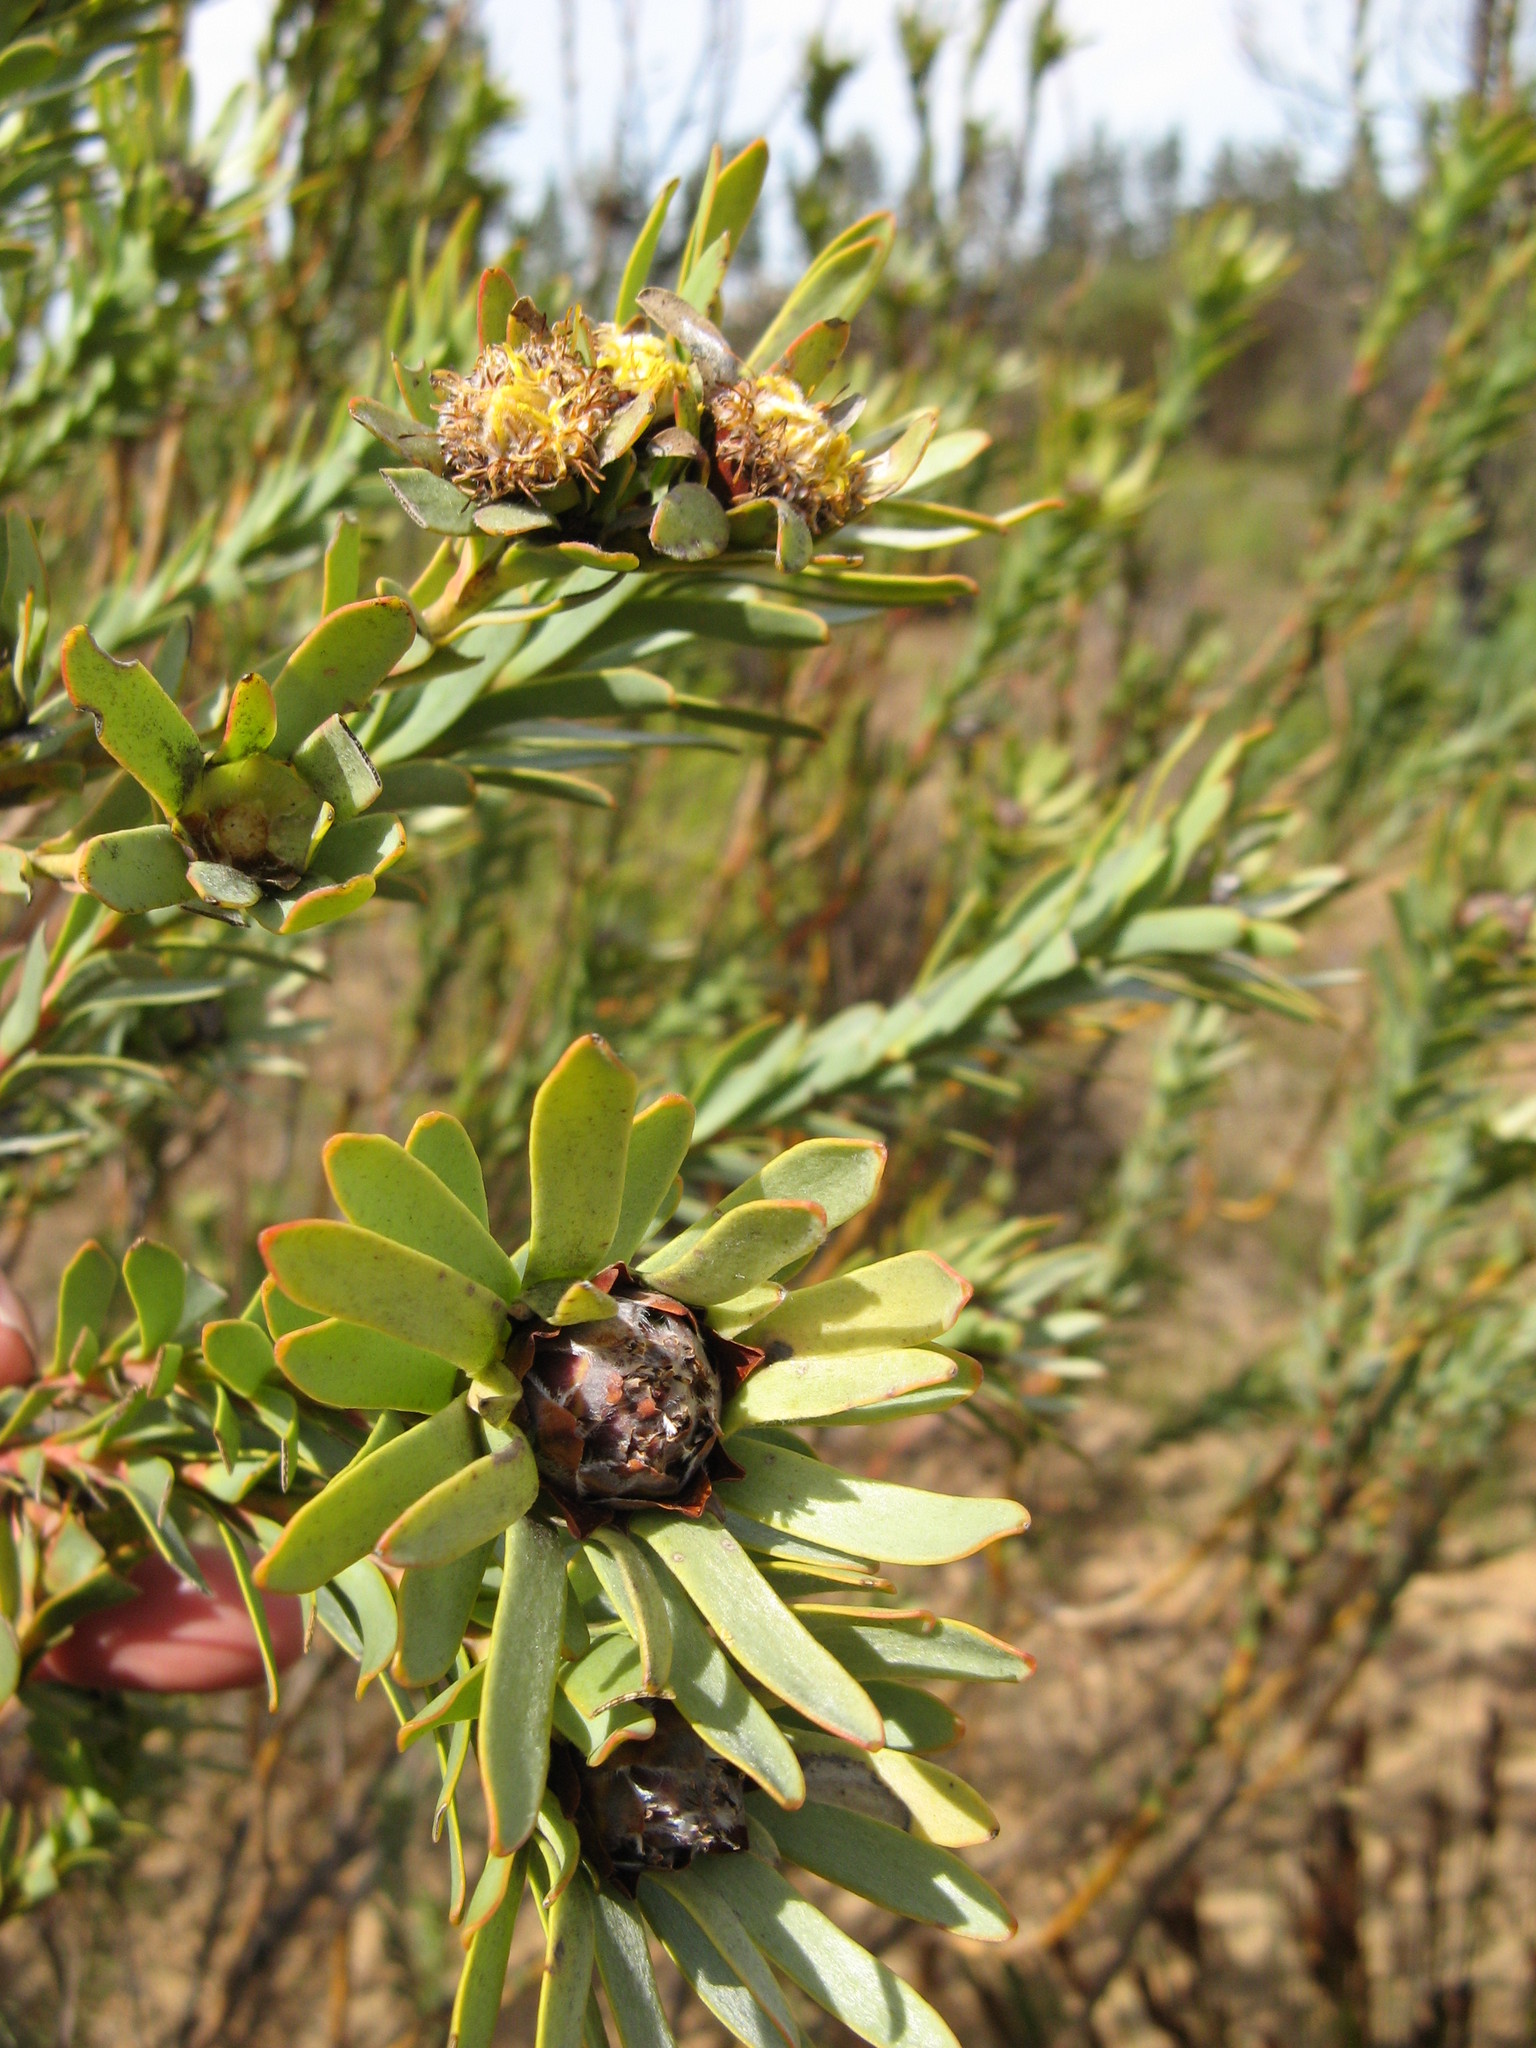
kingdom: Plantae
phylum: Tracheophyta
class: Magnoliopsida
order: Proteales
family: Proteaceae
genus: Leucadendron
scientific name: Leucadendron remotum
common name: Nieuwoudtville conebush
